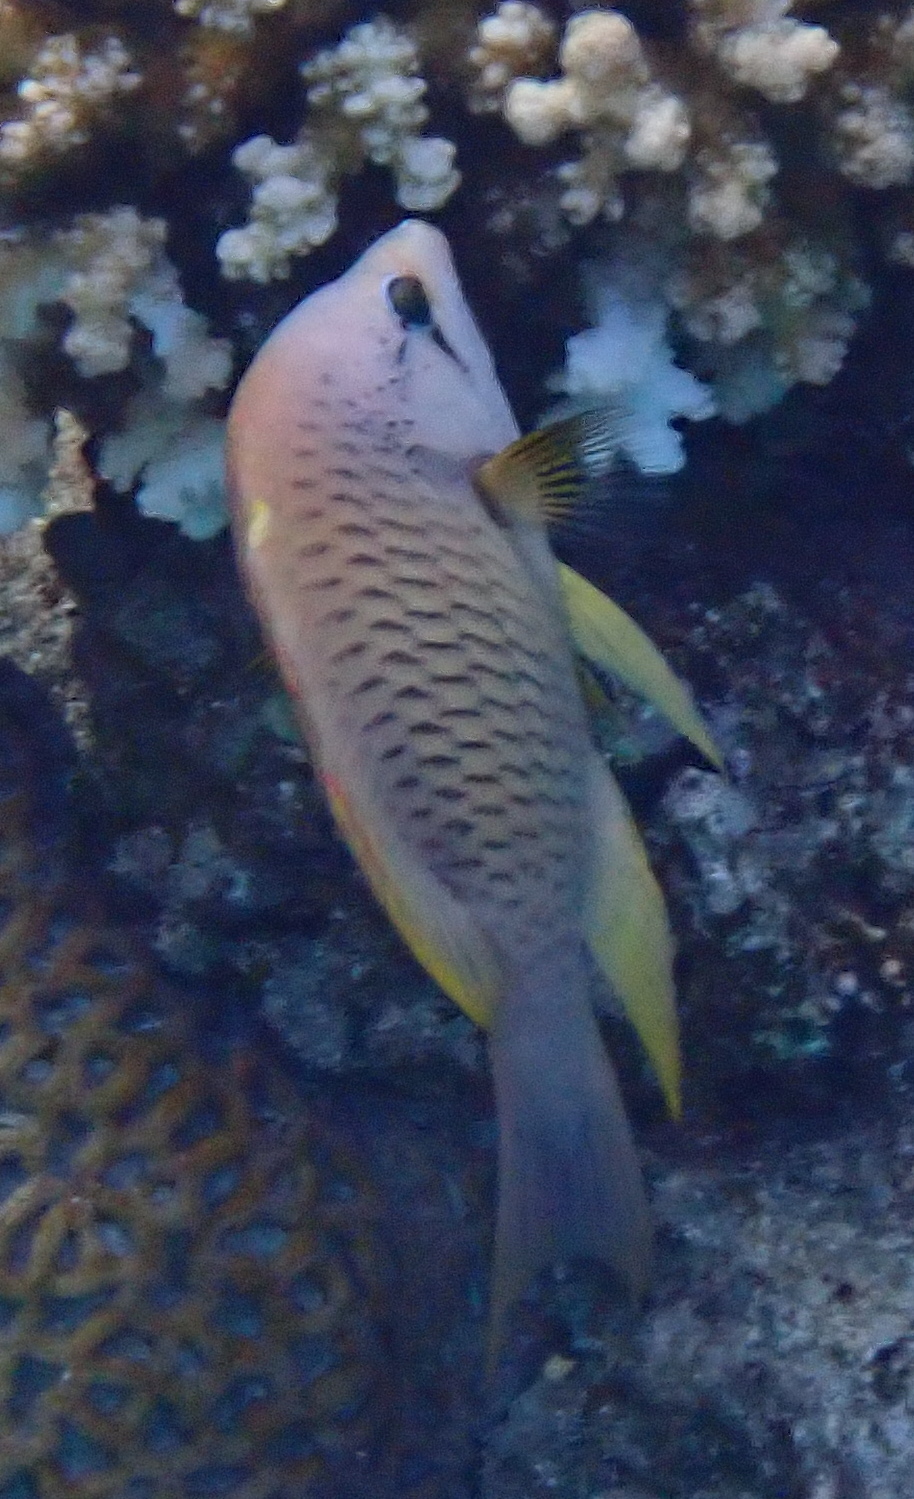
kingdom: Animalia
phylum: Chordata
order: Perciformes
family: Labridae
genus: Epibulus
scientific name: Epibulus insidiator
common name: Slingjaw wrasse
